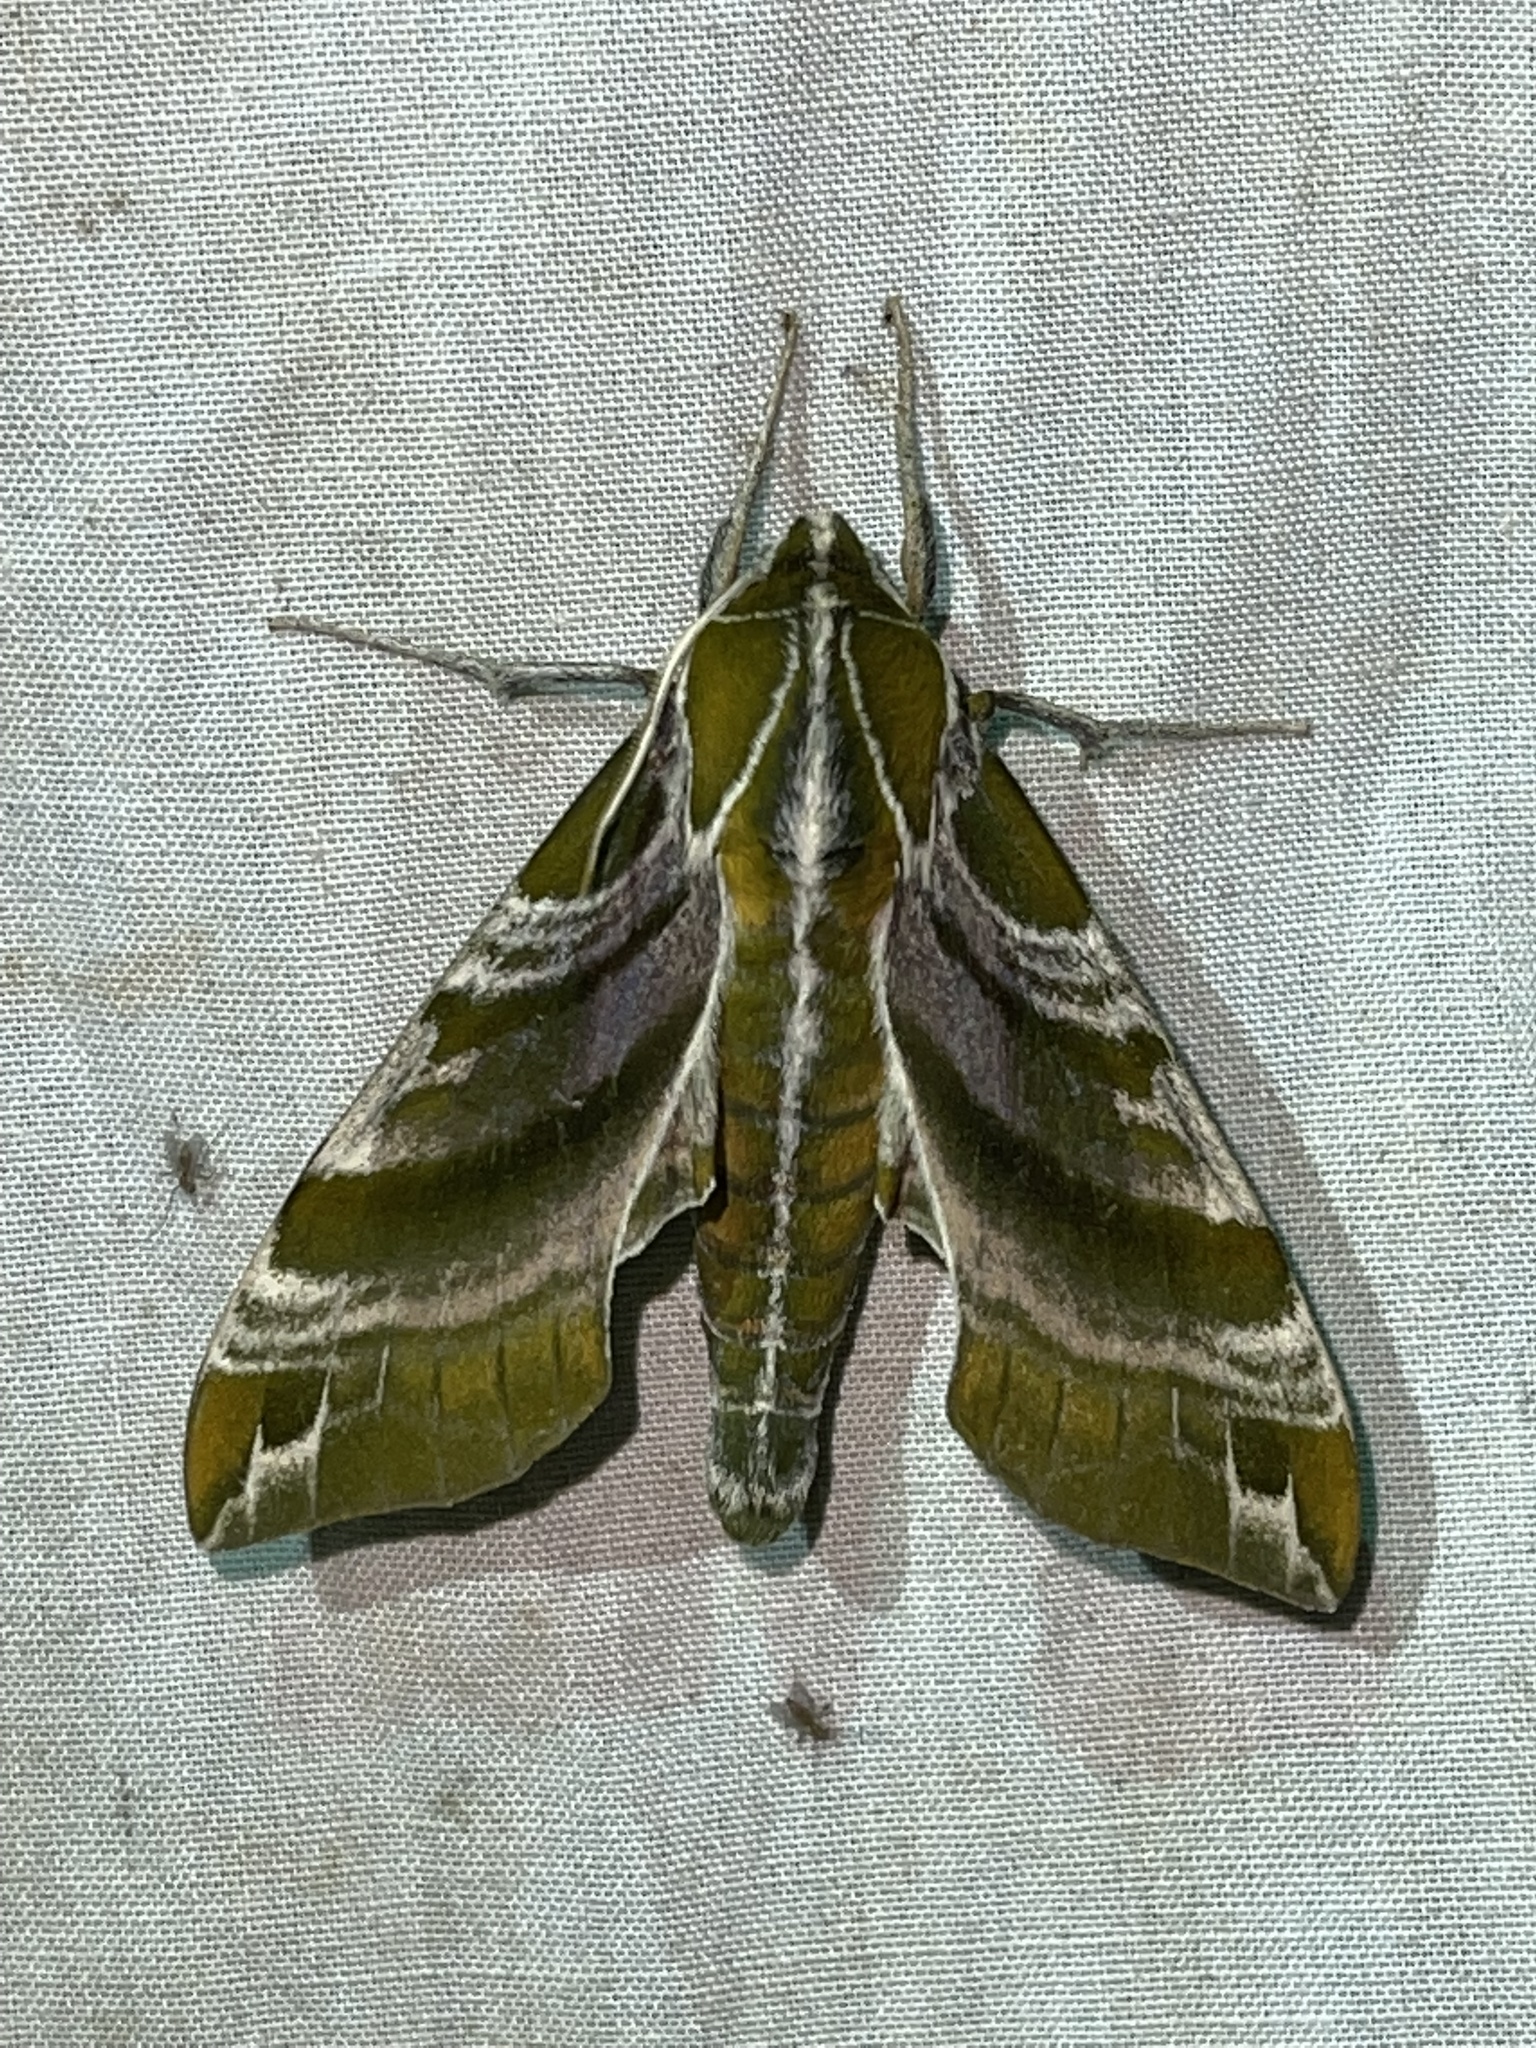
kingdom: Animalia
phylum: Arthropoda
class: Insecta
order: Lepidoptera
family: Sphingidae
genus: Darapsa
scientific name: Darapsa versicolor
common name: Hydrangea sphinx
